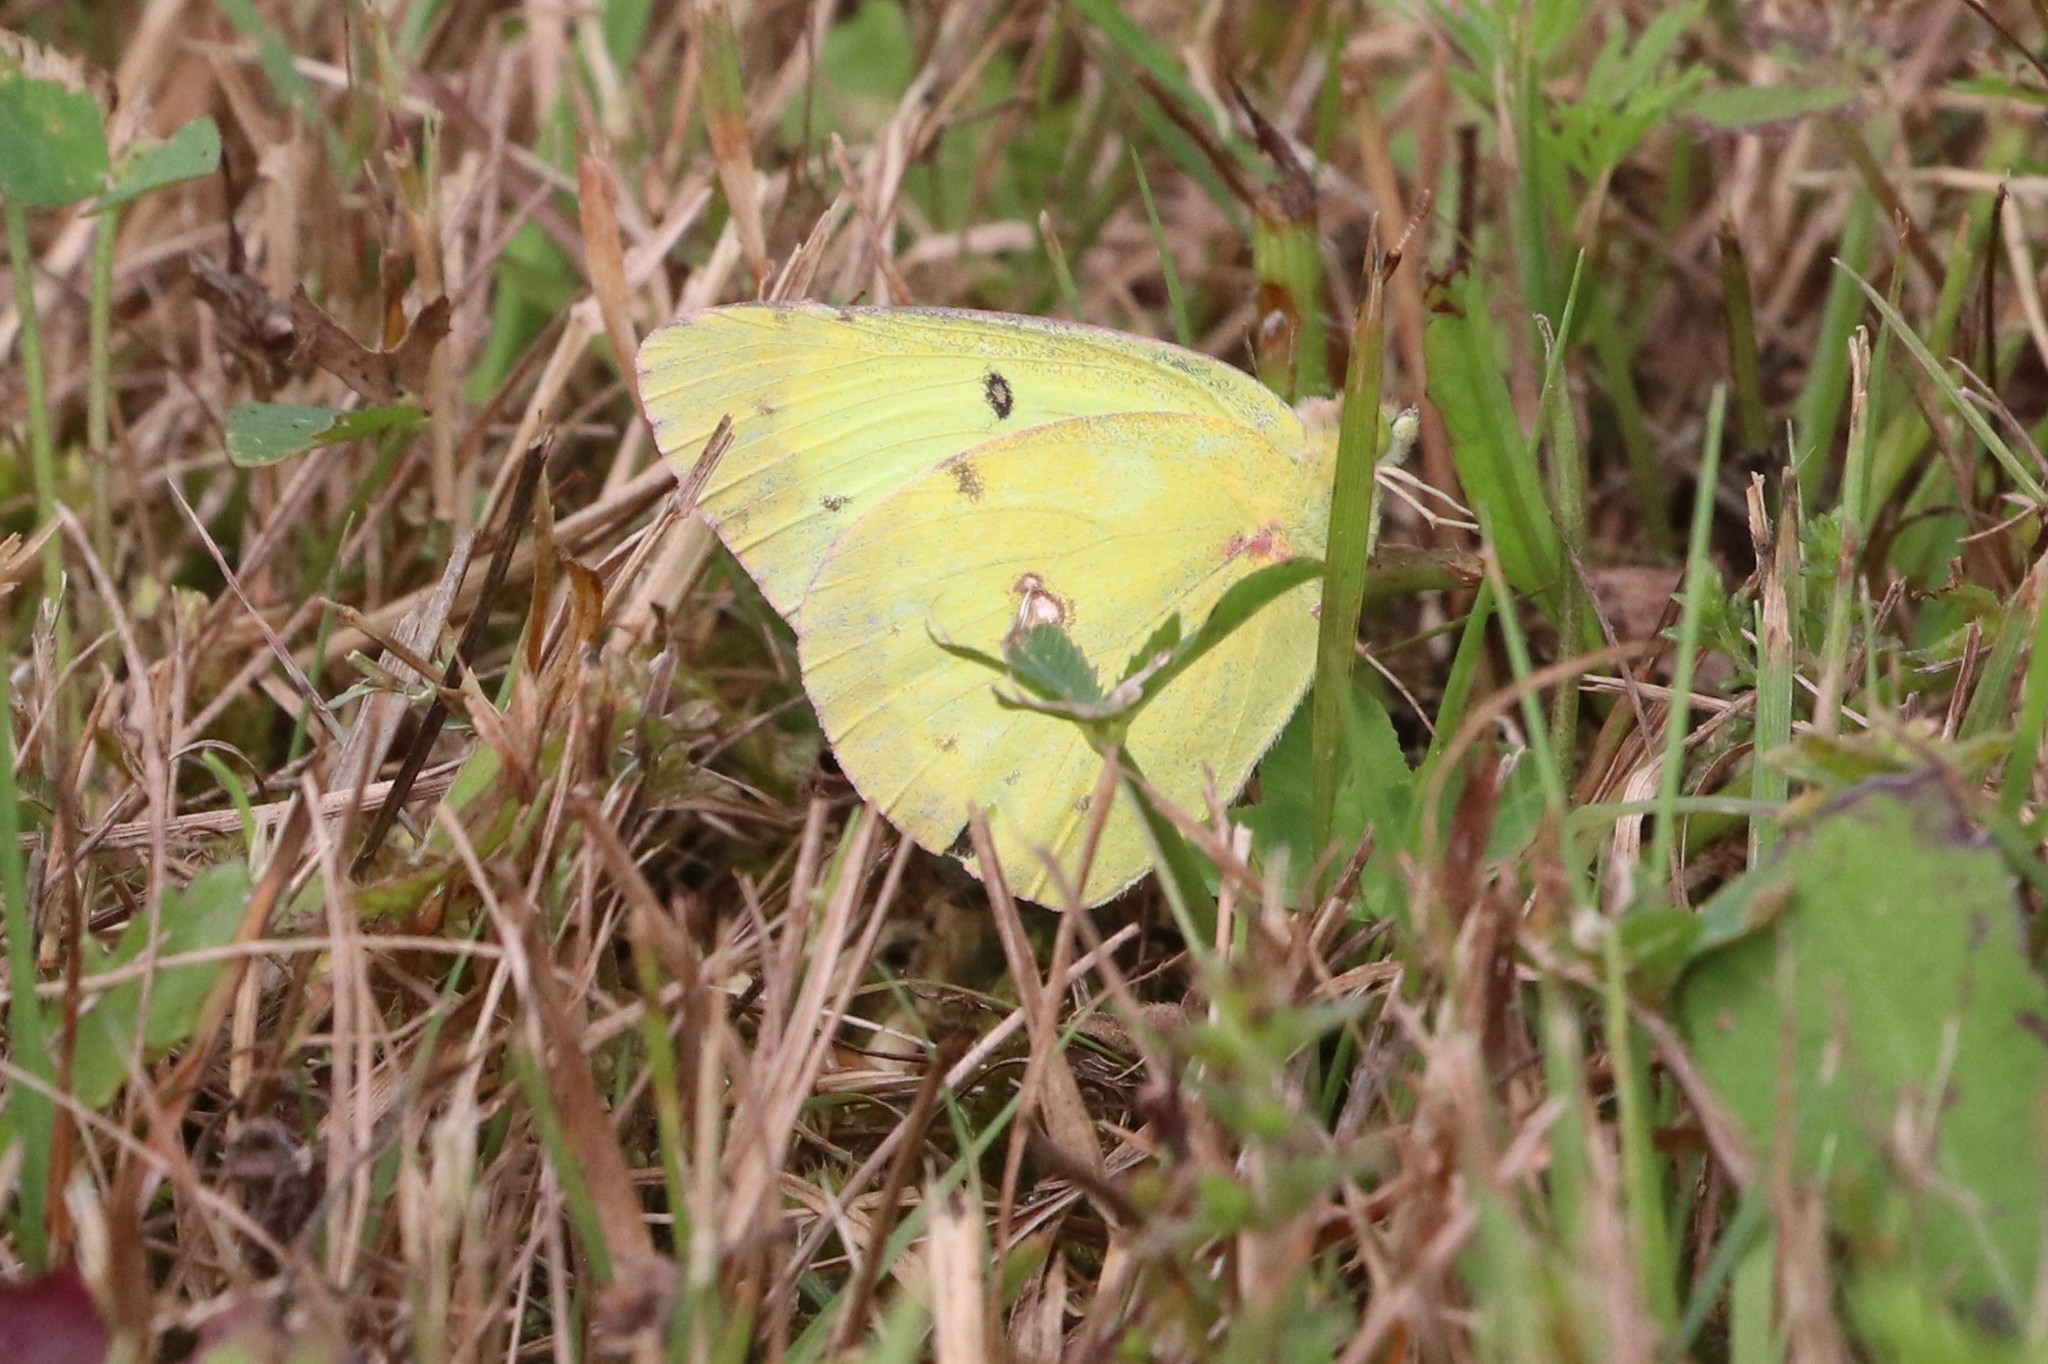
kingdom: Animalia
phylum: Arthropoda
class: Insecta
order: Lepidoptera
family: Pieridae
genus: Colias
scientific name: Colias philodice
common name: Clouded sulphur
